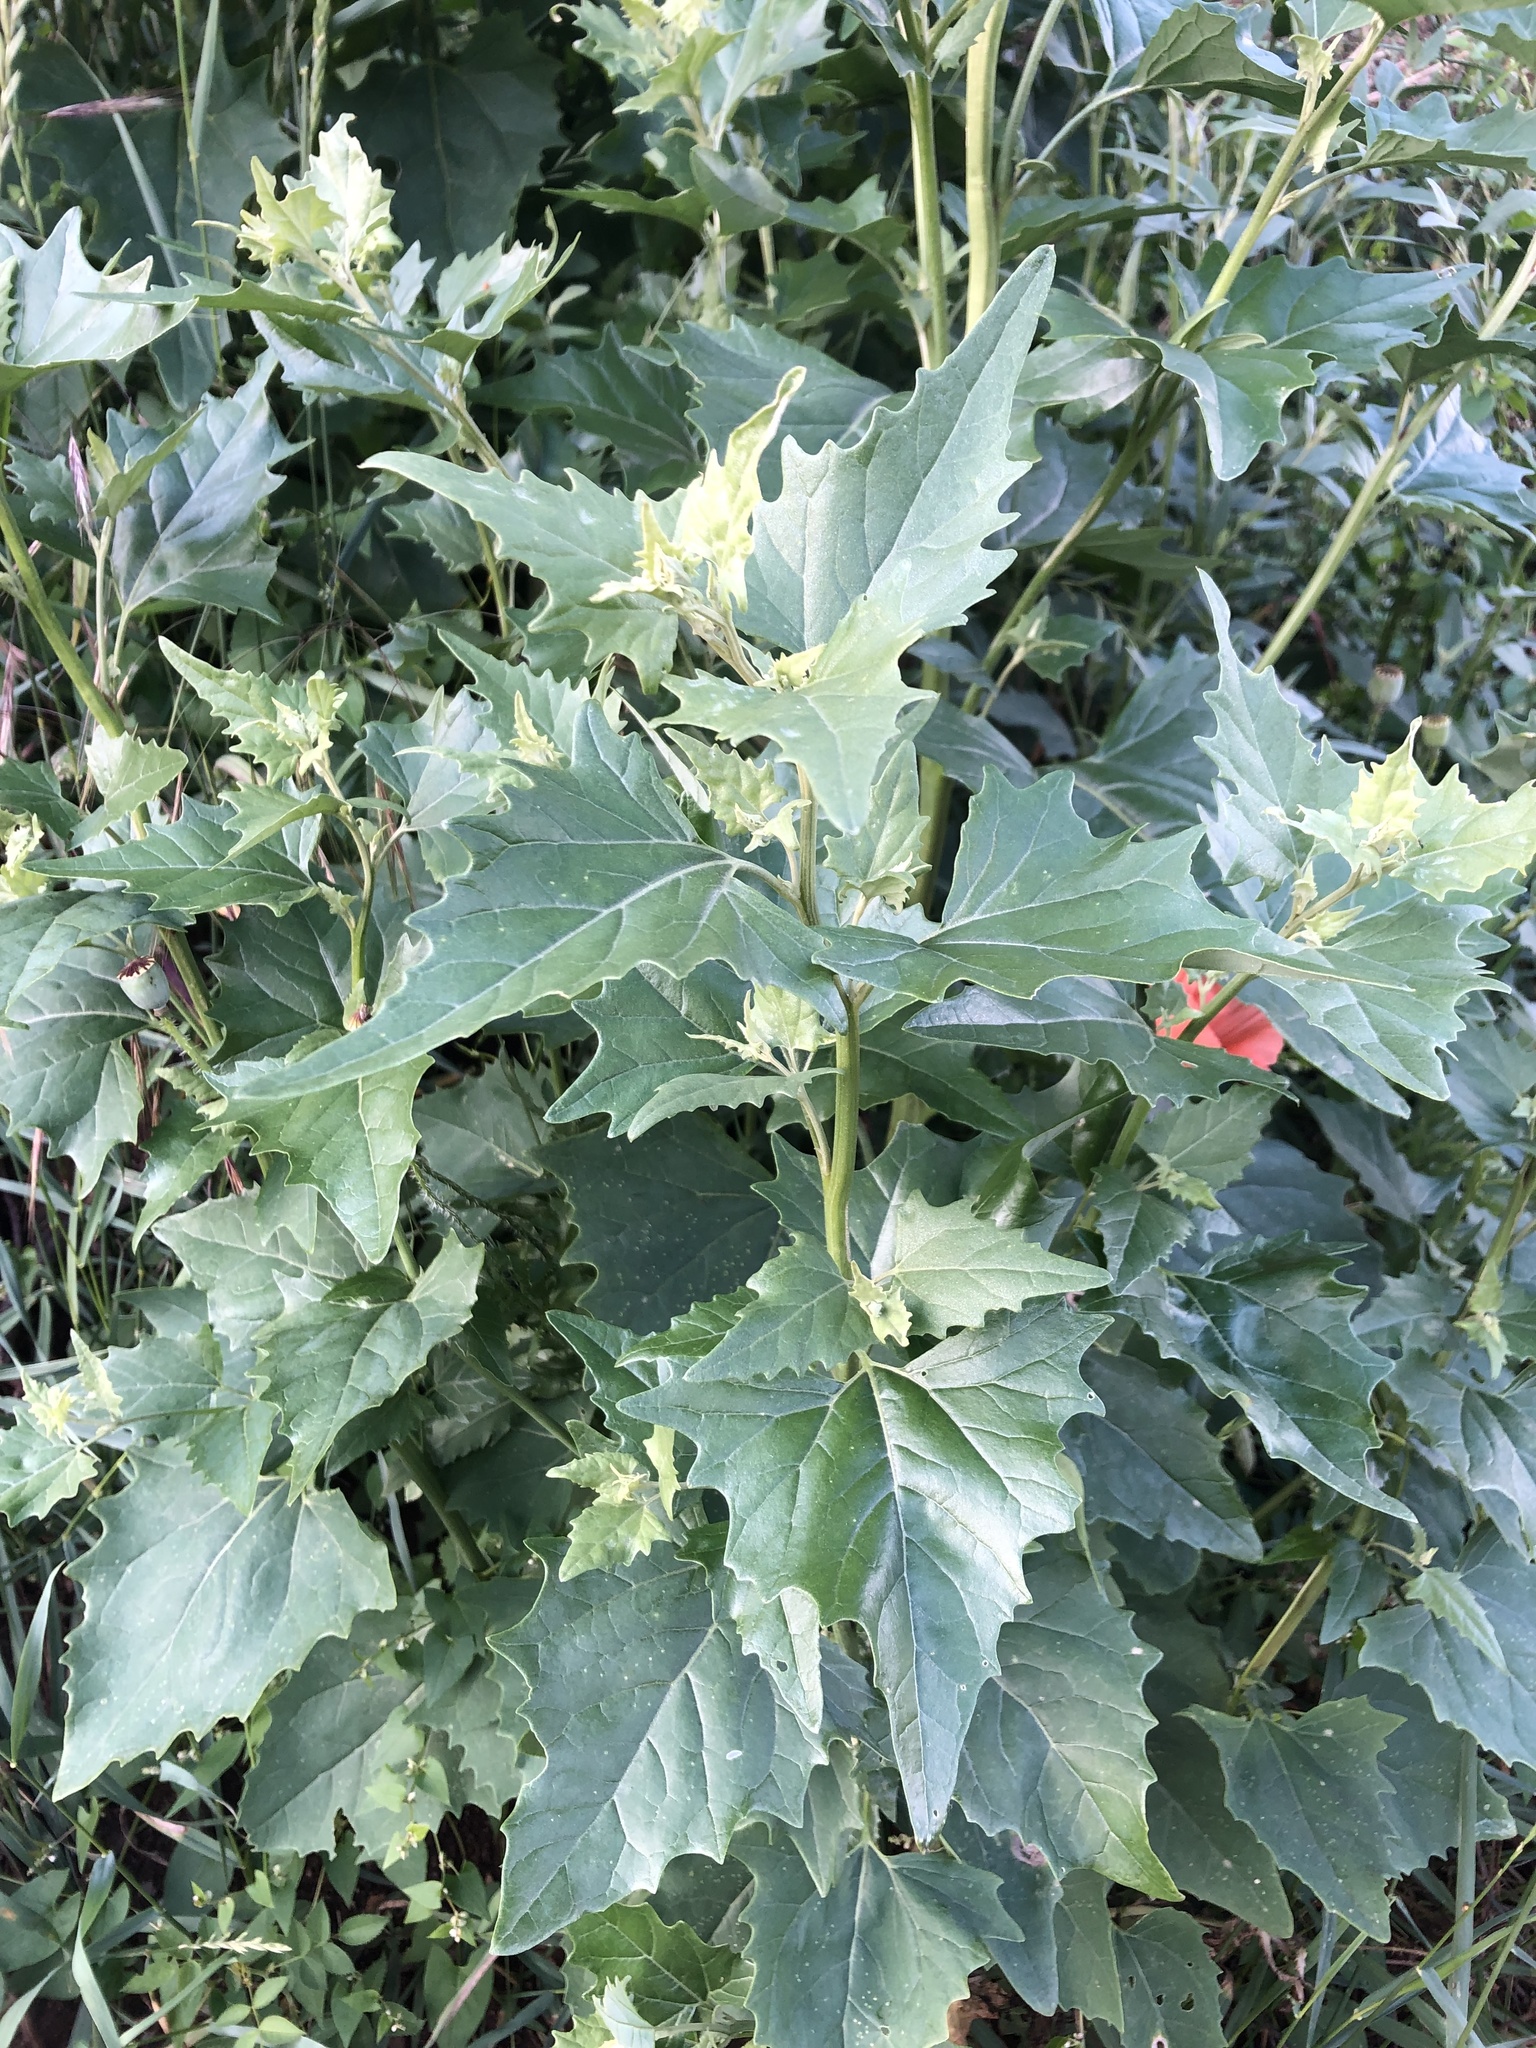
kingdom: Plantae
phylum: Tracheophyta
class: Magnoliopsida
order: Caryophyllales
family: Amaranthaceae
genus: Atriplex
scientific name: Atriplex sagittata
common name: Purple orache
